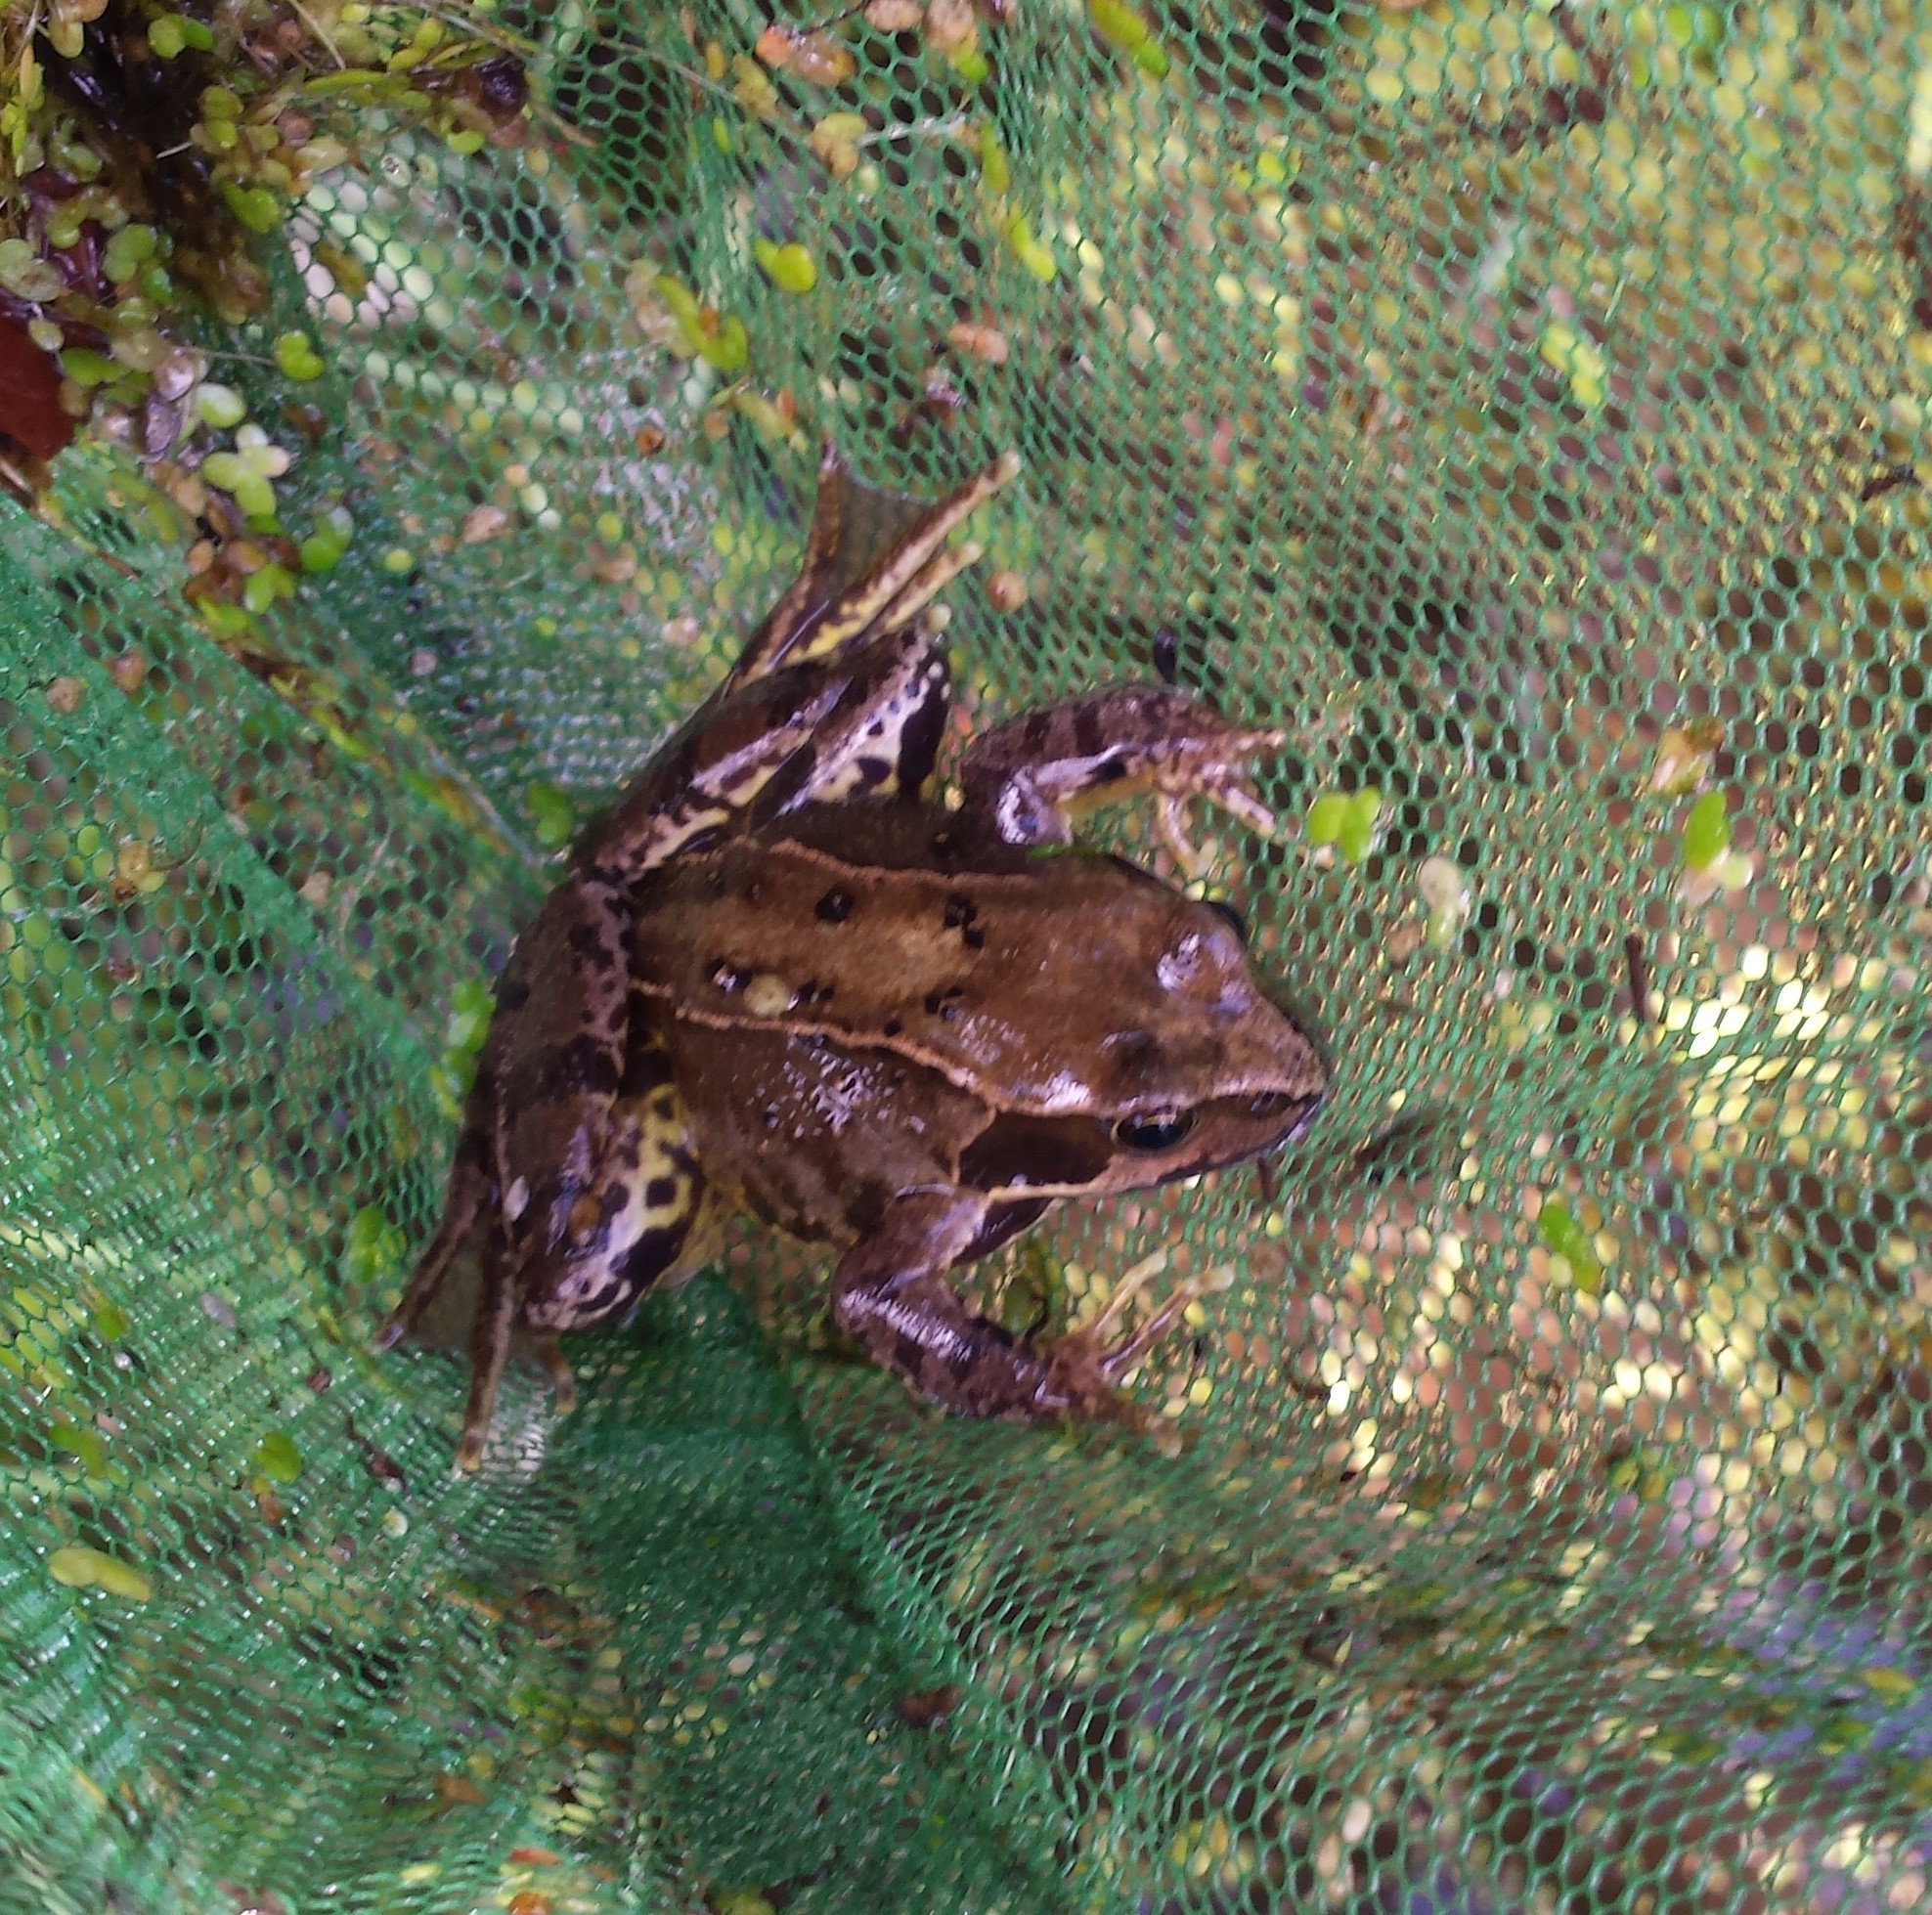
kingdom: Animalia
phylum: Chordata
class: Amphibia
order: Anura
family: Ranidae
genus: Rana
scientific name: Rana temporaria
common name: Common frog
